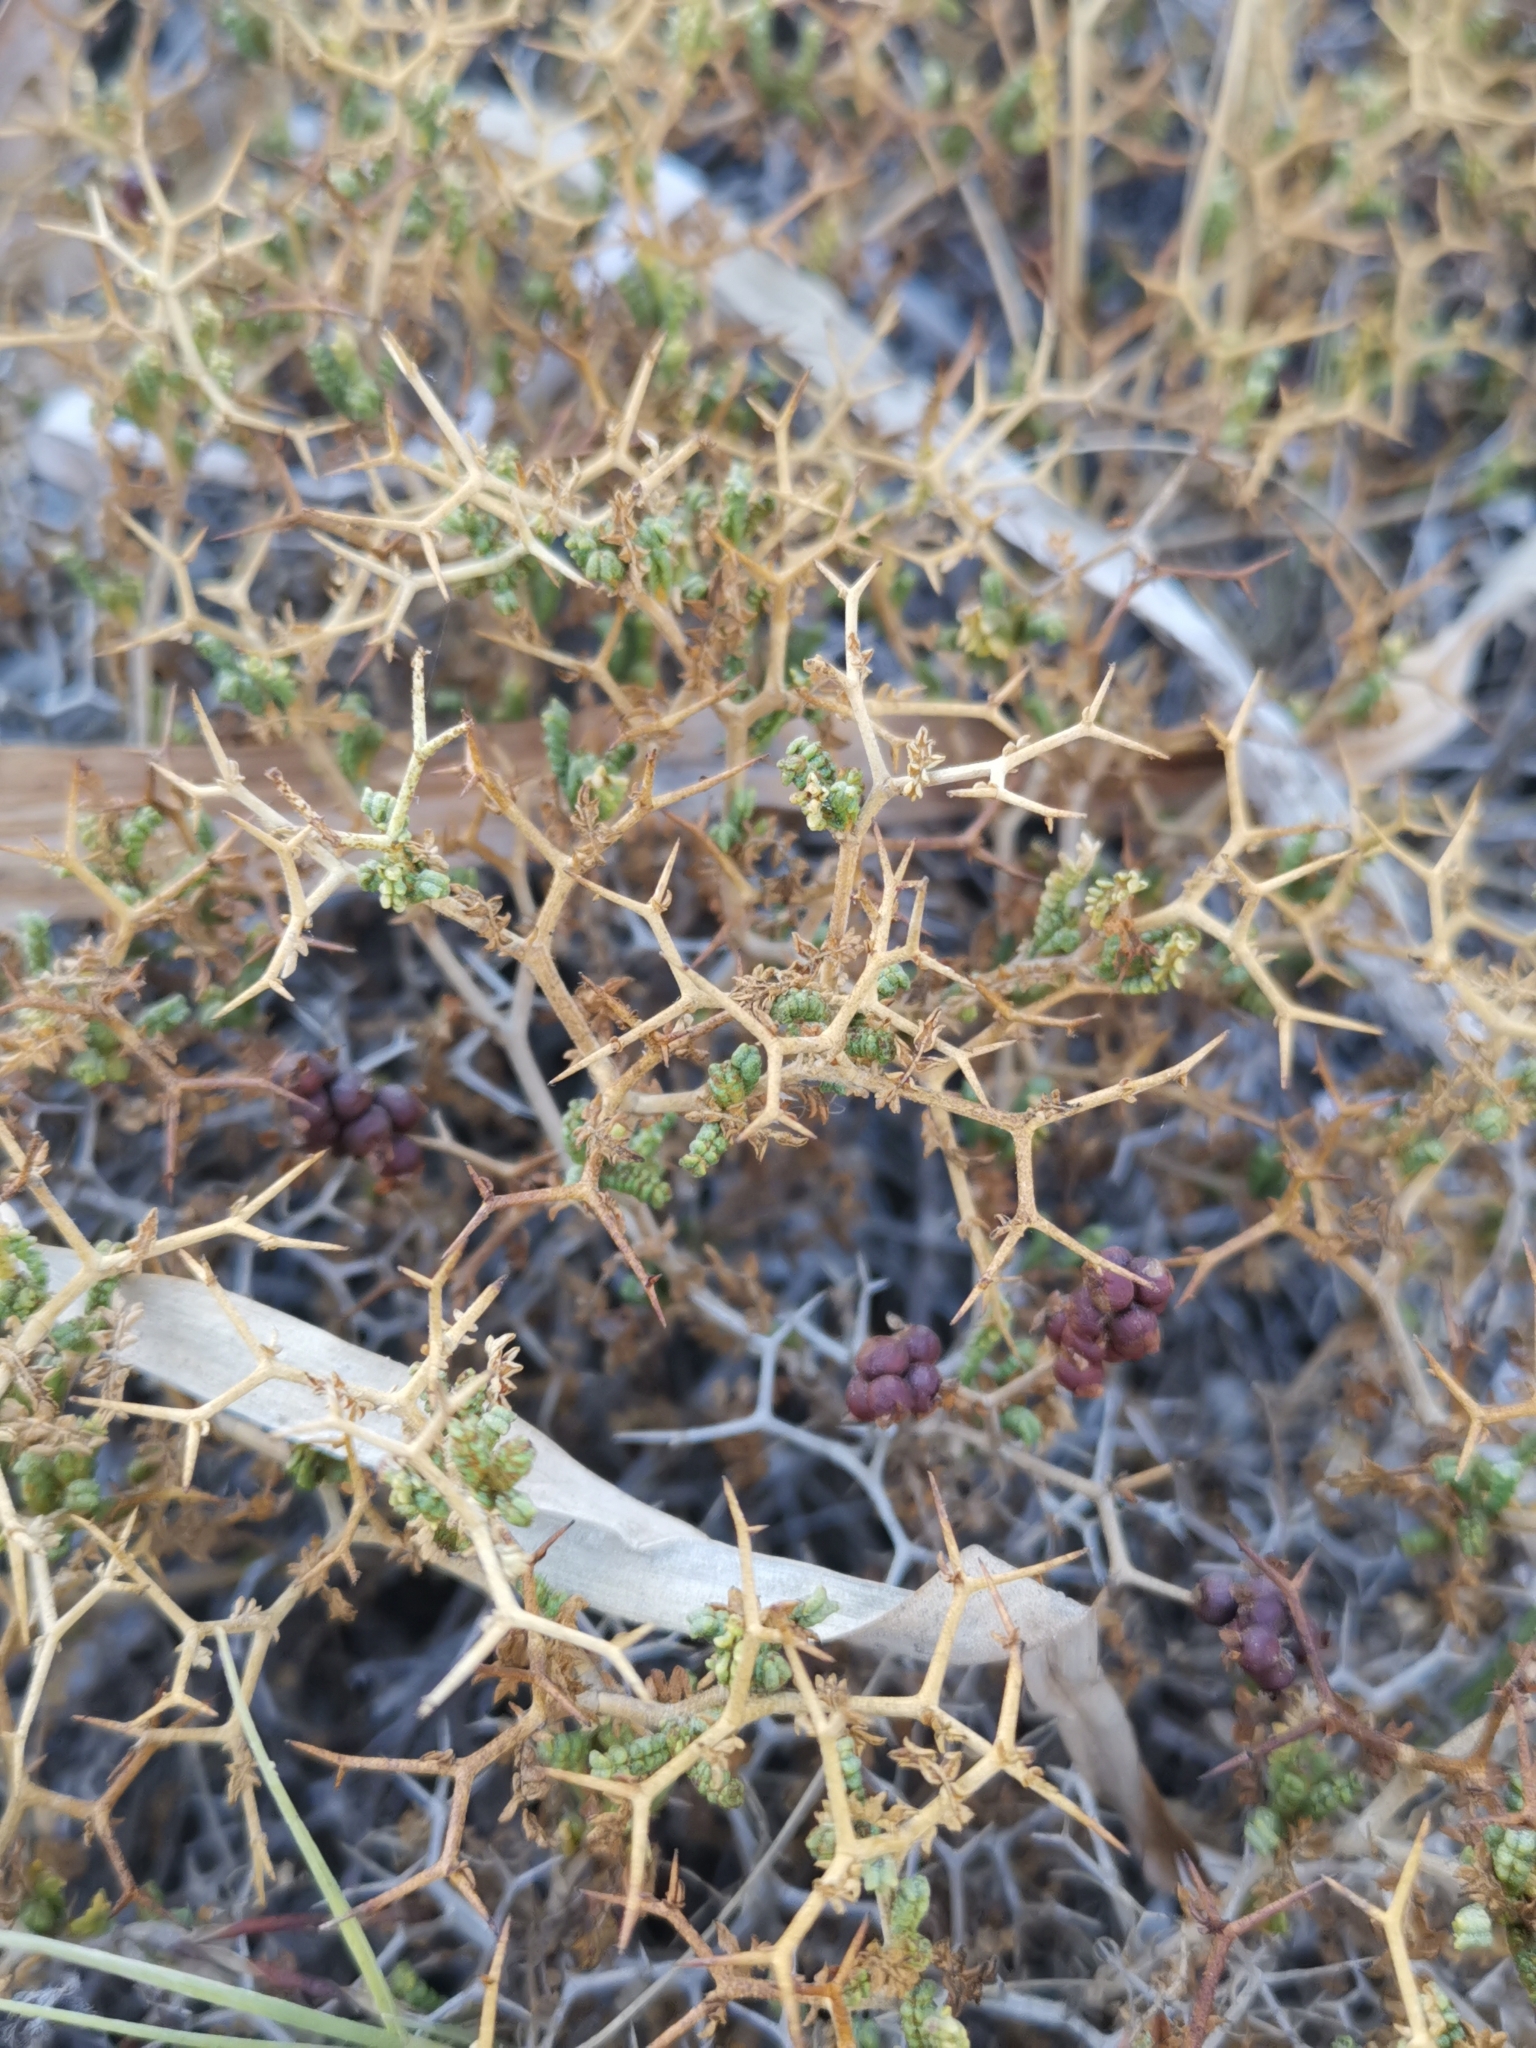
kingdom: Plantae
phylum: Tracheophyta
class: Magnoliopsida
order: Rosales
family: Rosaceae
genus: Sarcopoterium
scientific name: Sarcopoterium spinosum
